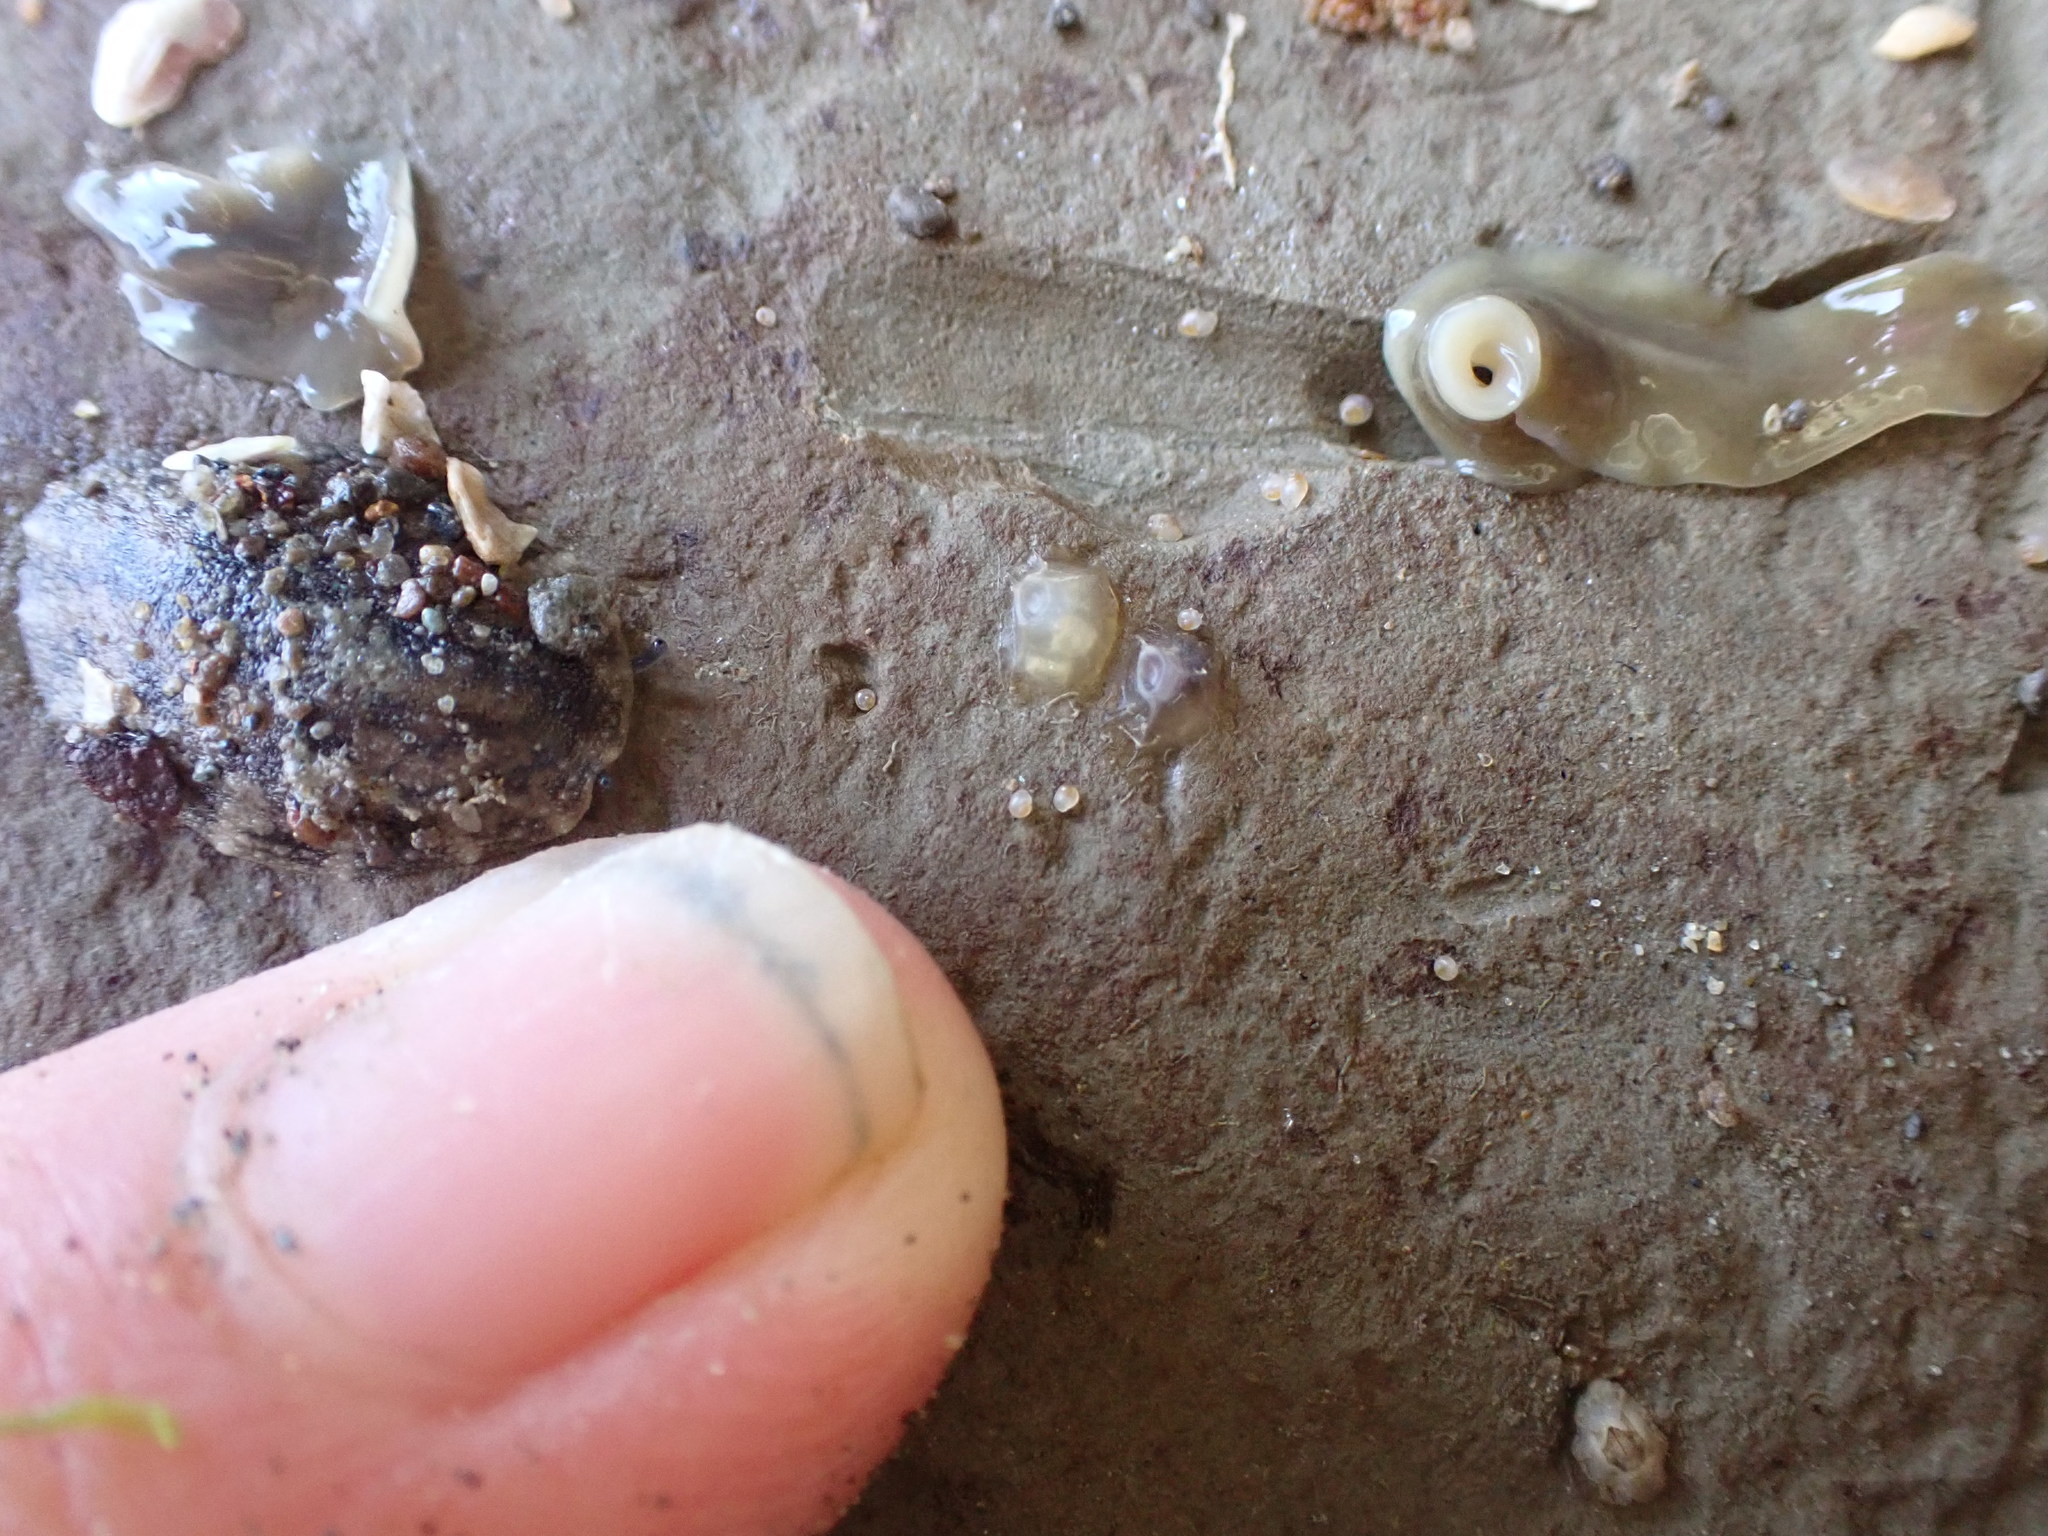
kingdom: Animalia
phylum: Mollusca
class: Gastropoda
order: Neogastropoda
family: Cominellidae
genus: Cominella
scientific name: Cominella glandiformis
